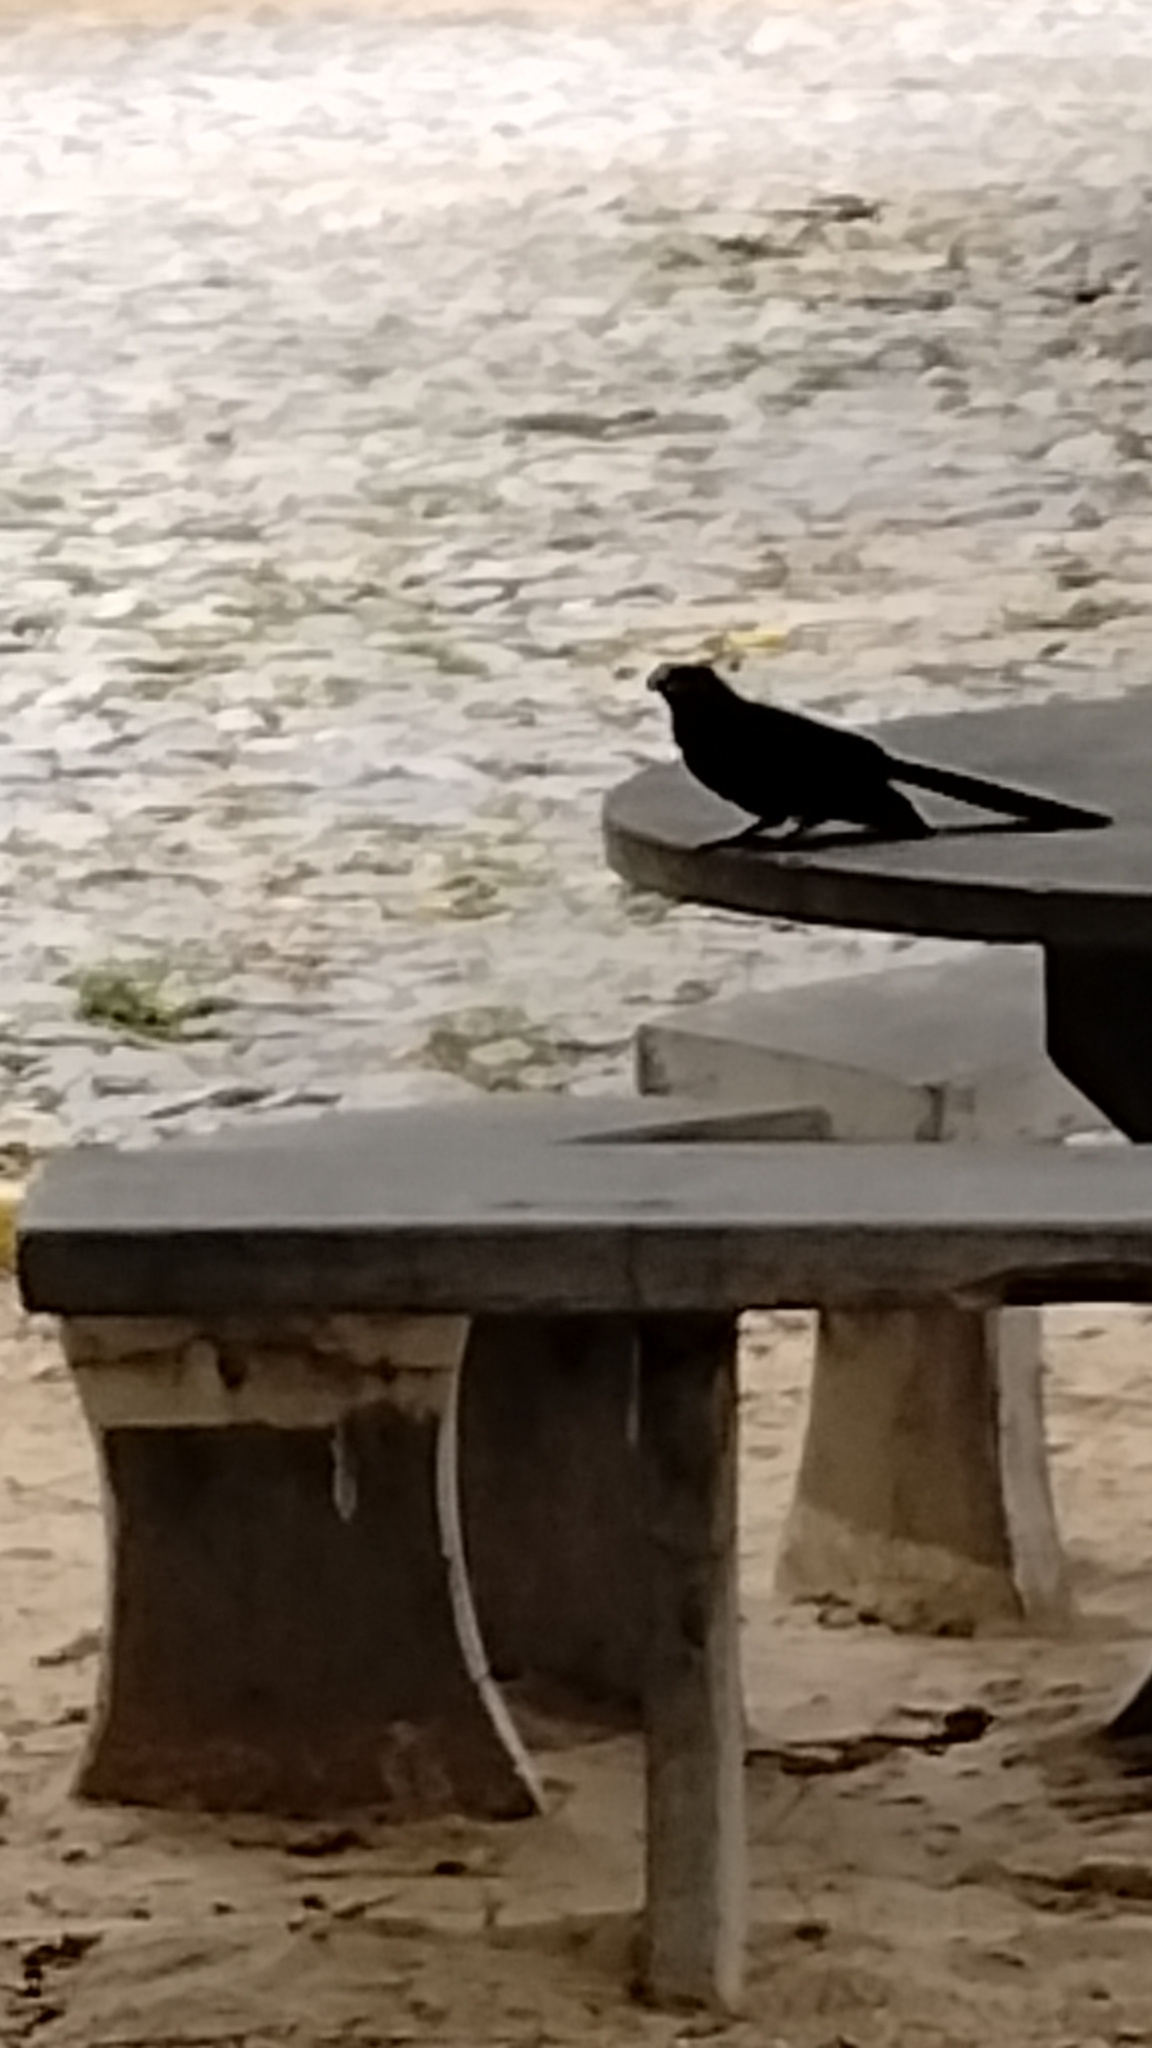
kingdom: Animalia
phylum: Chordata
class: Aves
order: Cuculiformes
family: Cuculidae
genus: Crotophaga
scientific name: Crotophaga ani
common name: Smooth-billed ani
